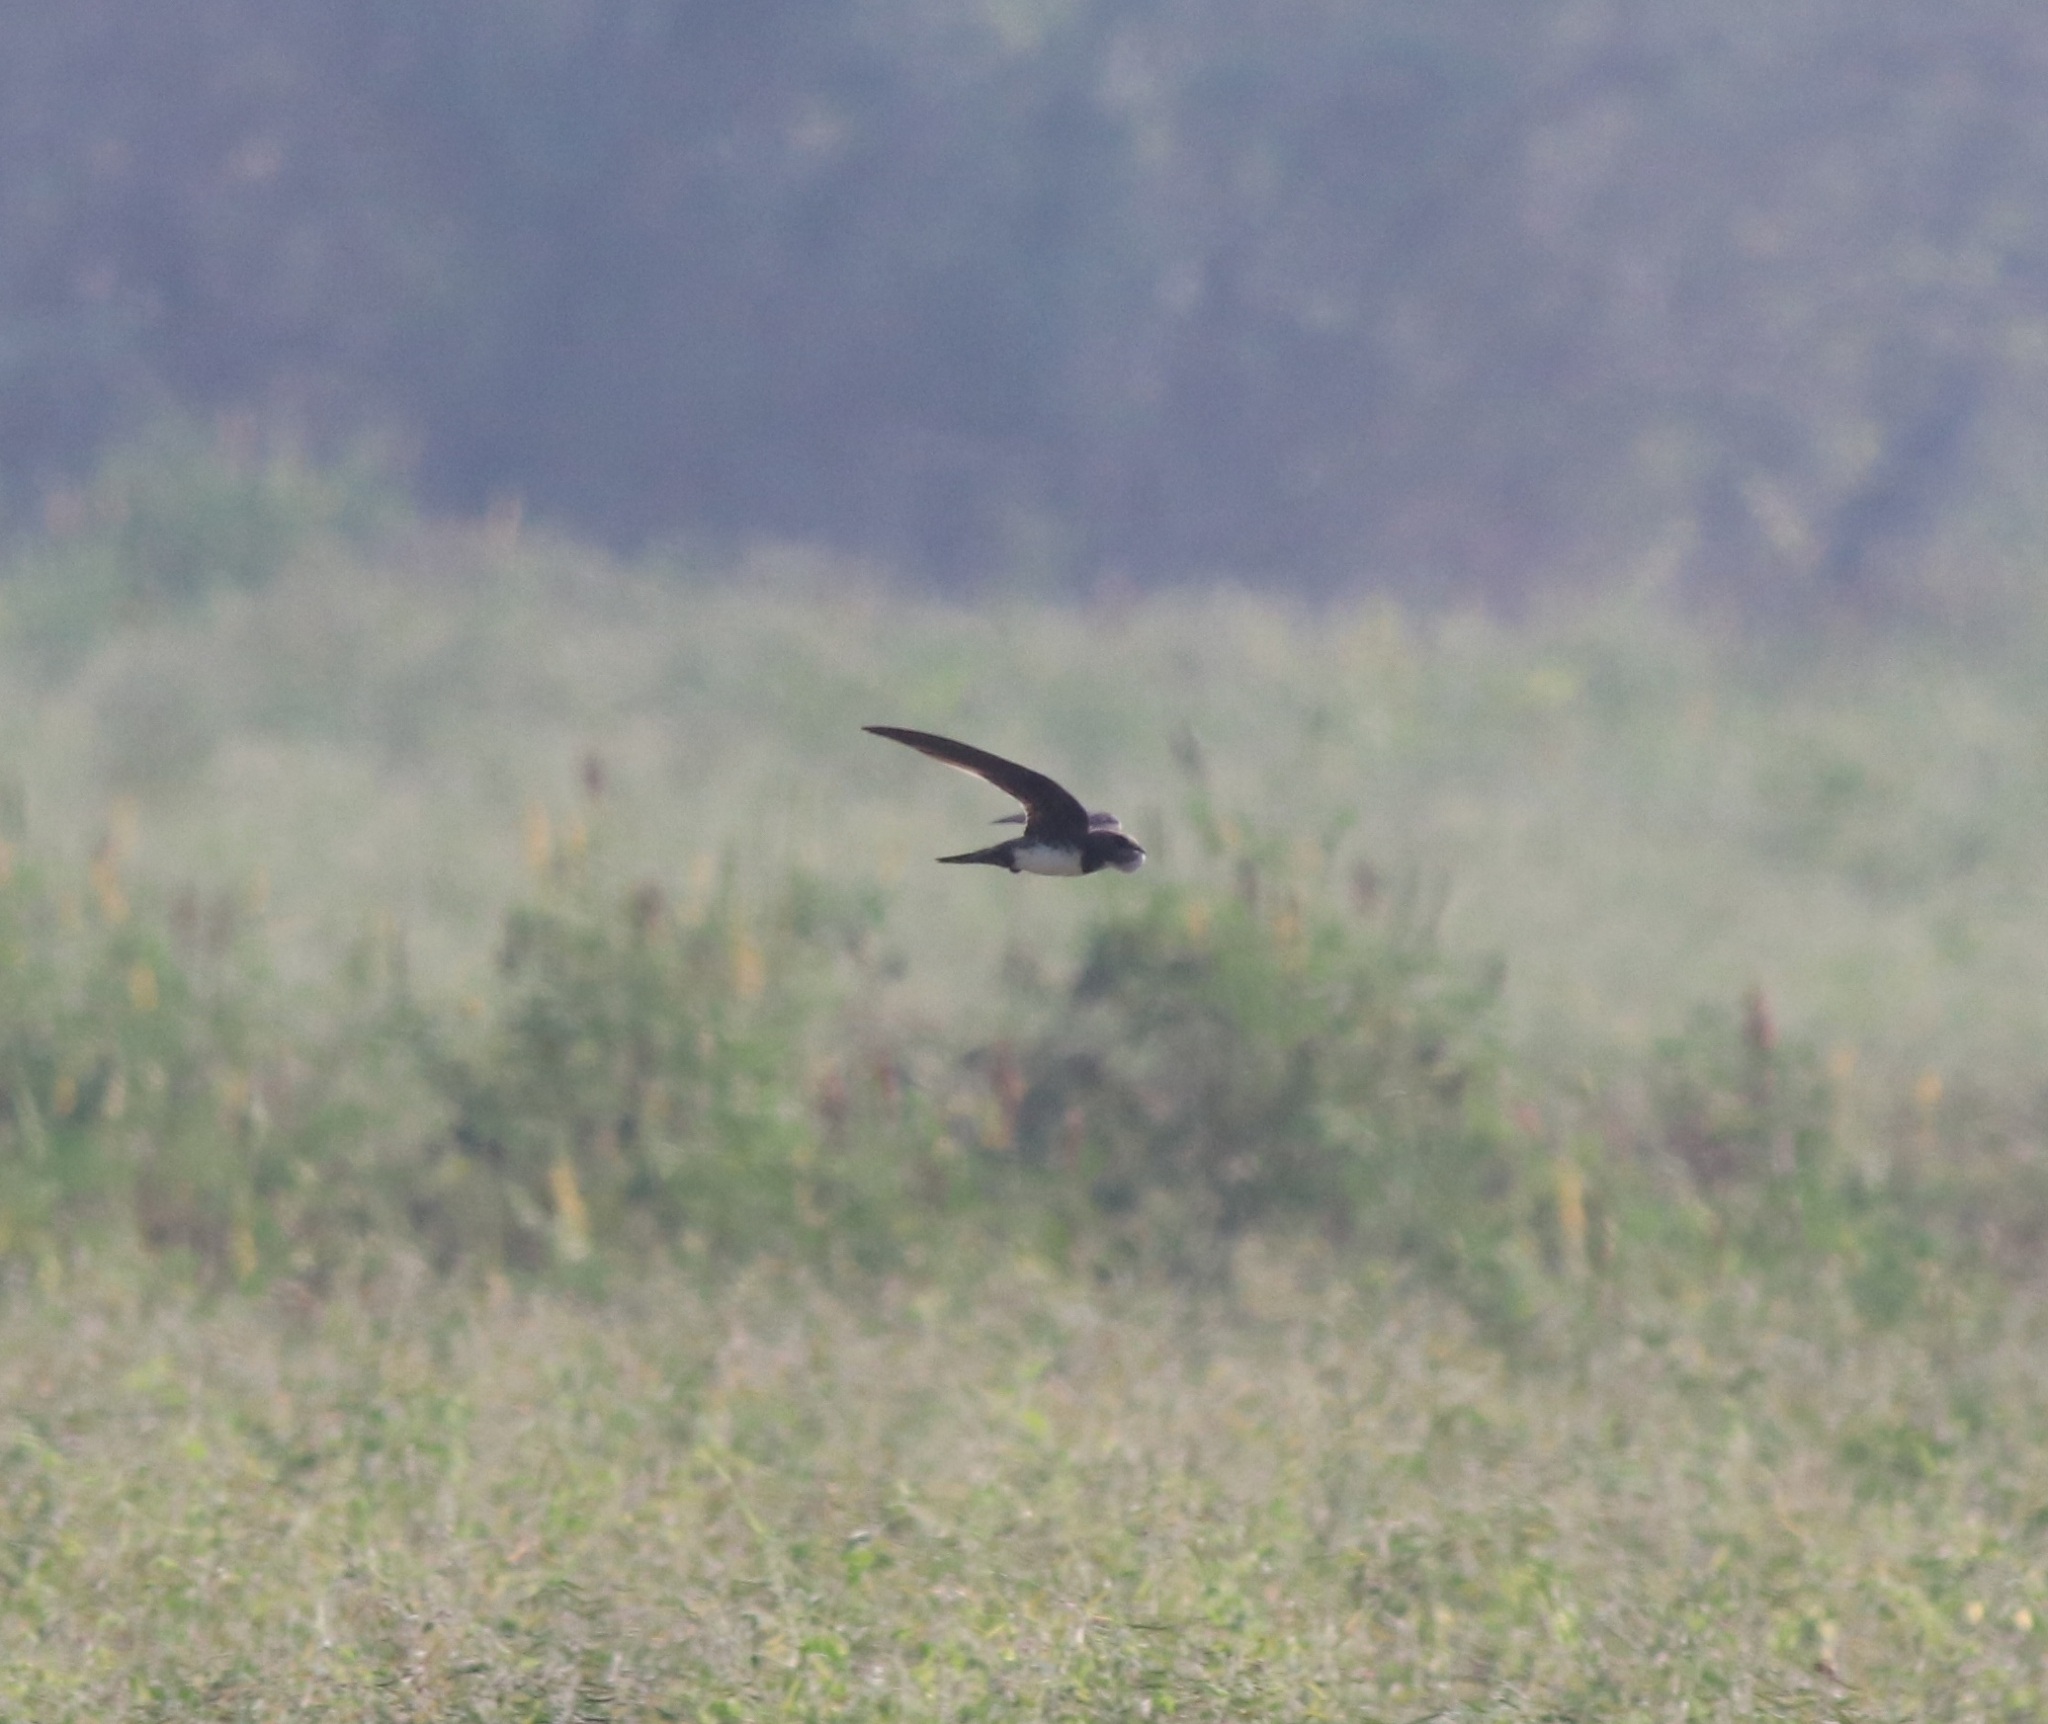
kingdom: Animalia
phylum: Chordata
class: Aves
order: Apodiformes
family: Apodidae
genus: Tachymarptis
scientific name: Tachymarptis melba
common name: Alpine swift
